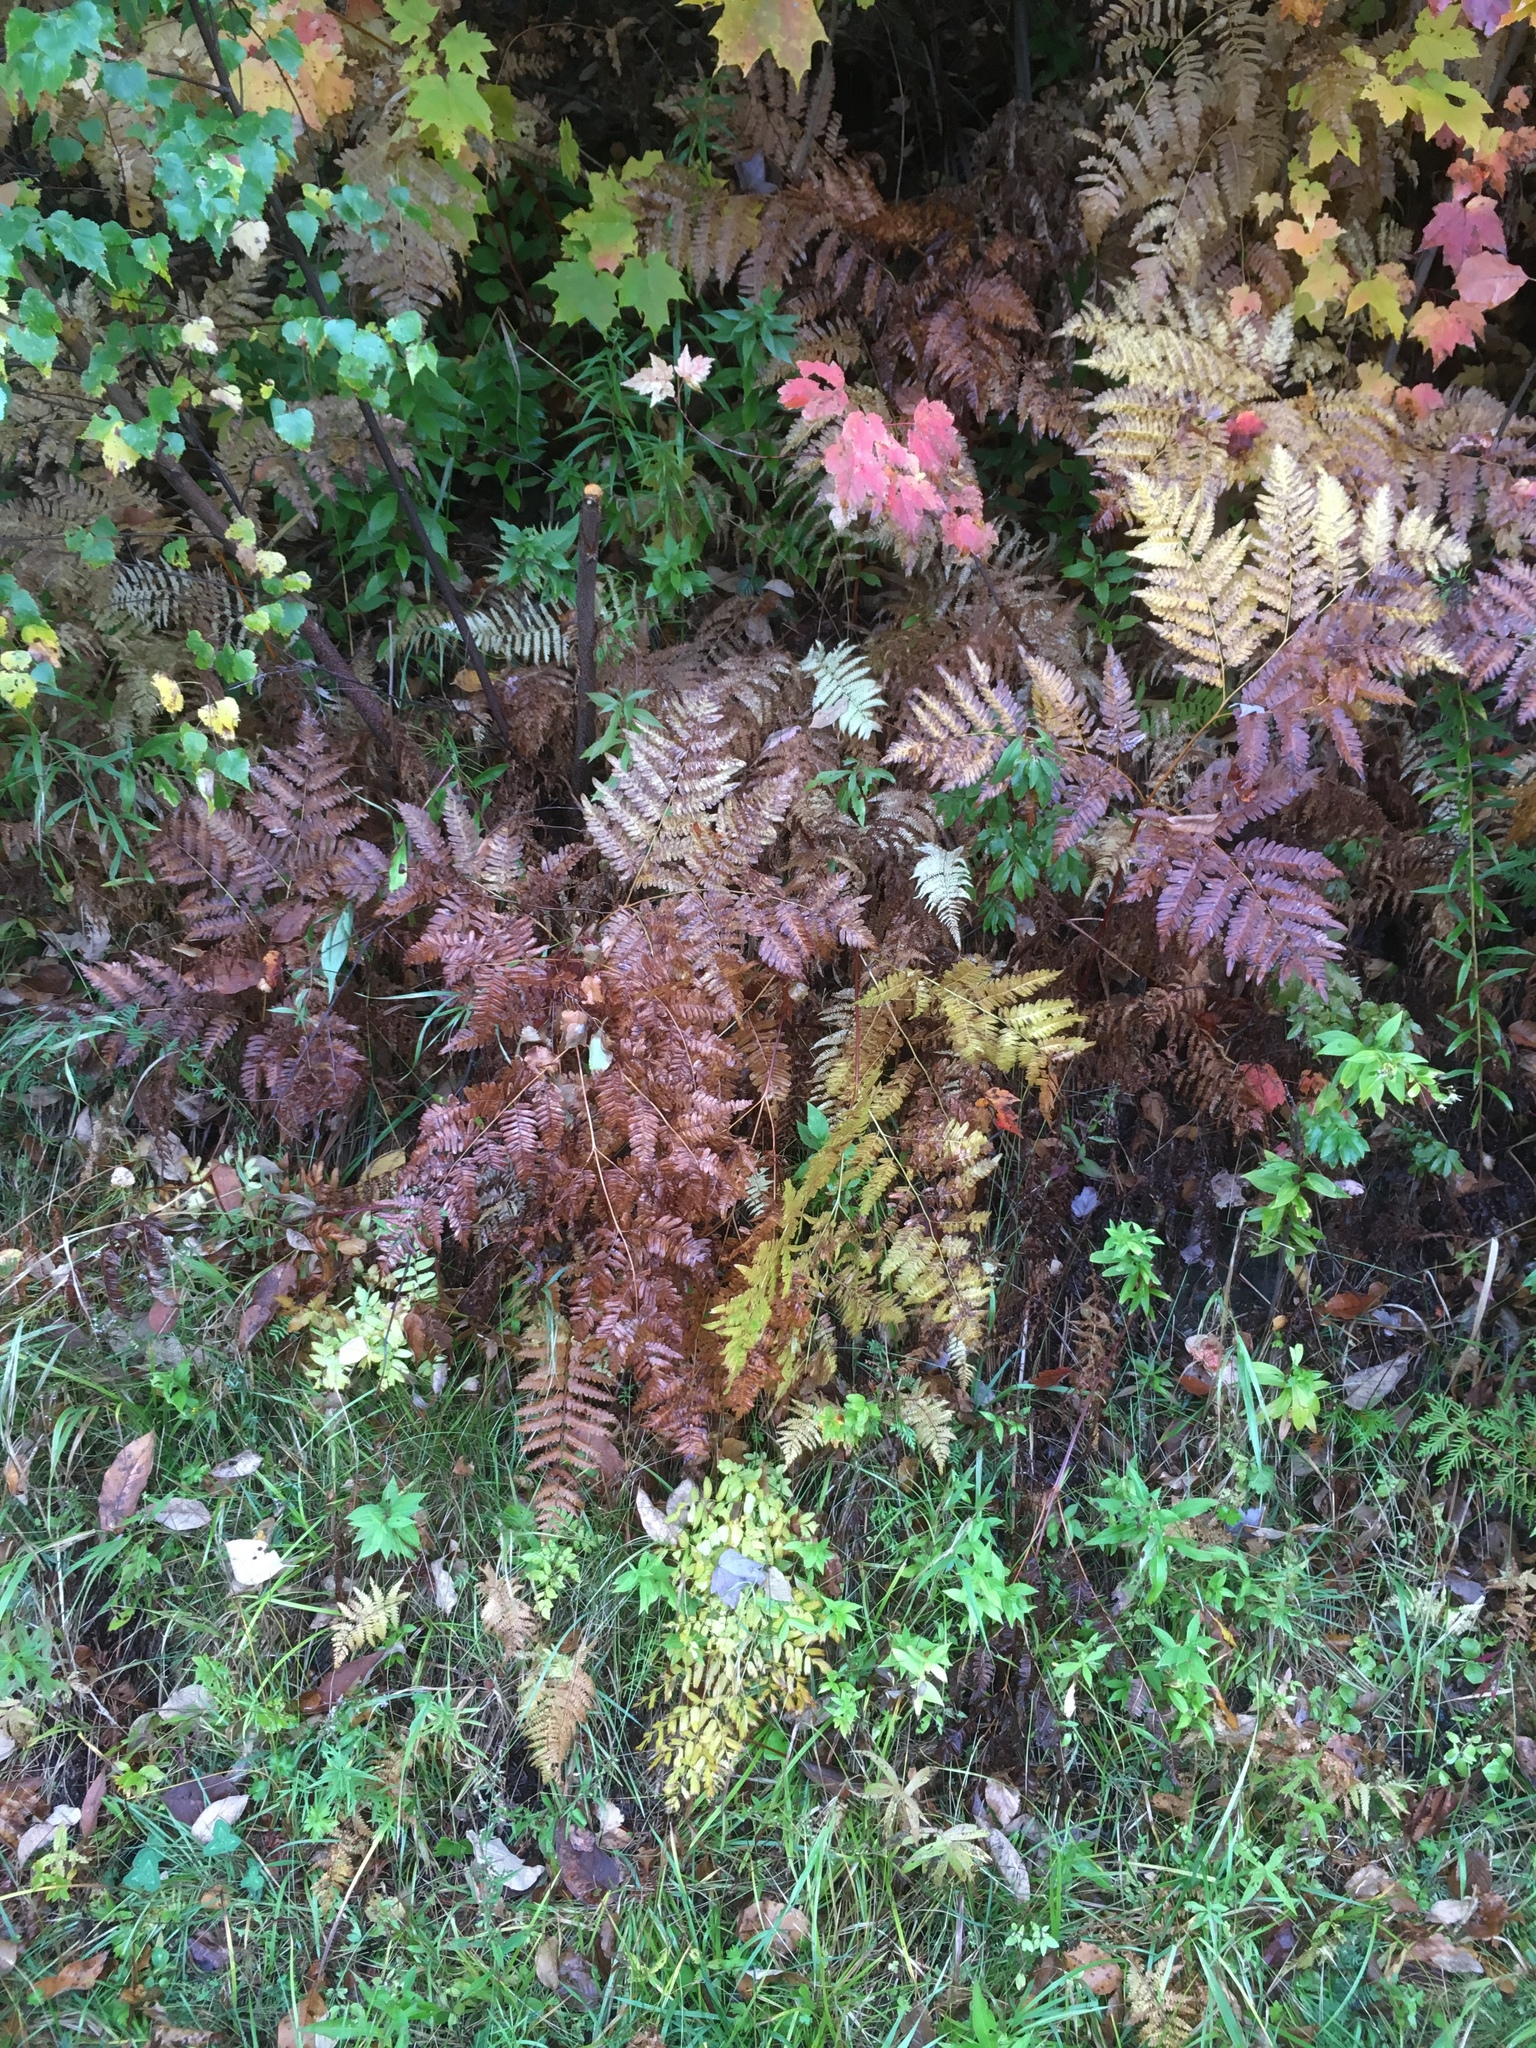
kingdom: Plantae
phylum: Tracheophyta
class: Polypodiopsida
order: Polypodiales
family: Dennstaedtiaceae
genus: Pteridium
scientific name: Pteridium aquilinum
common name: Bracken
